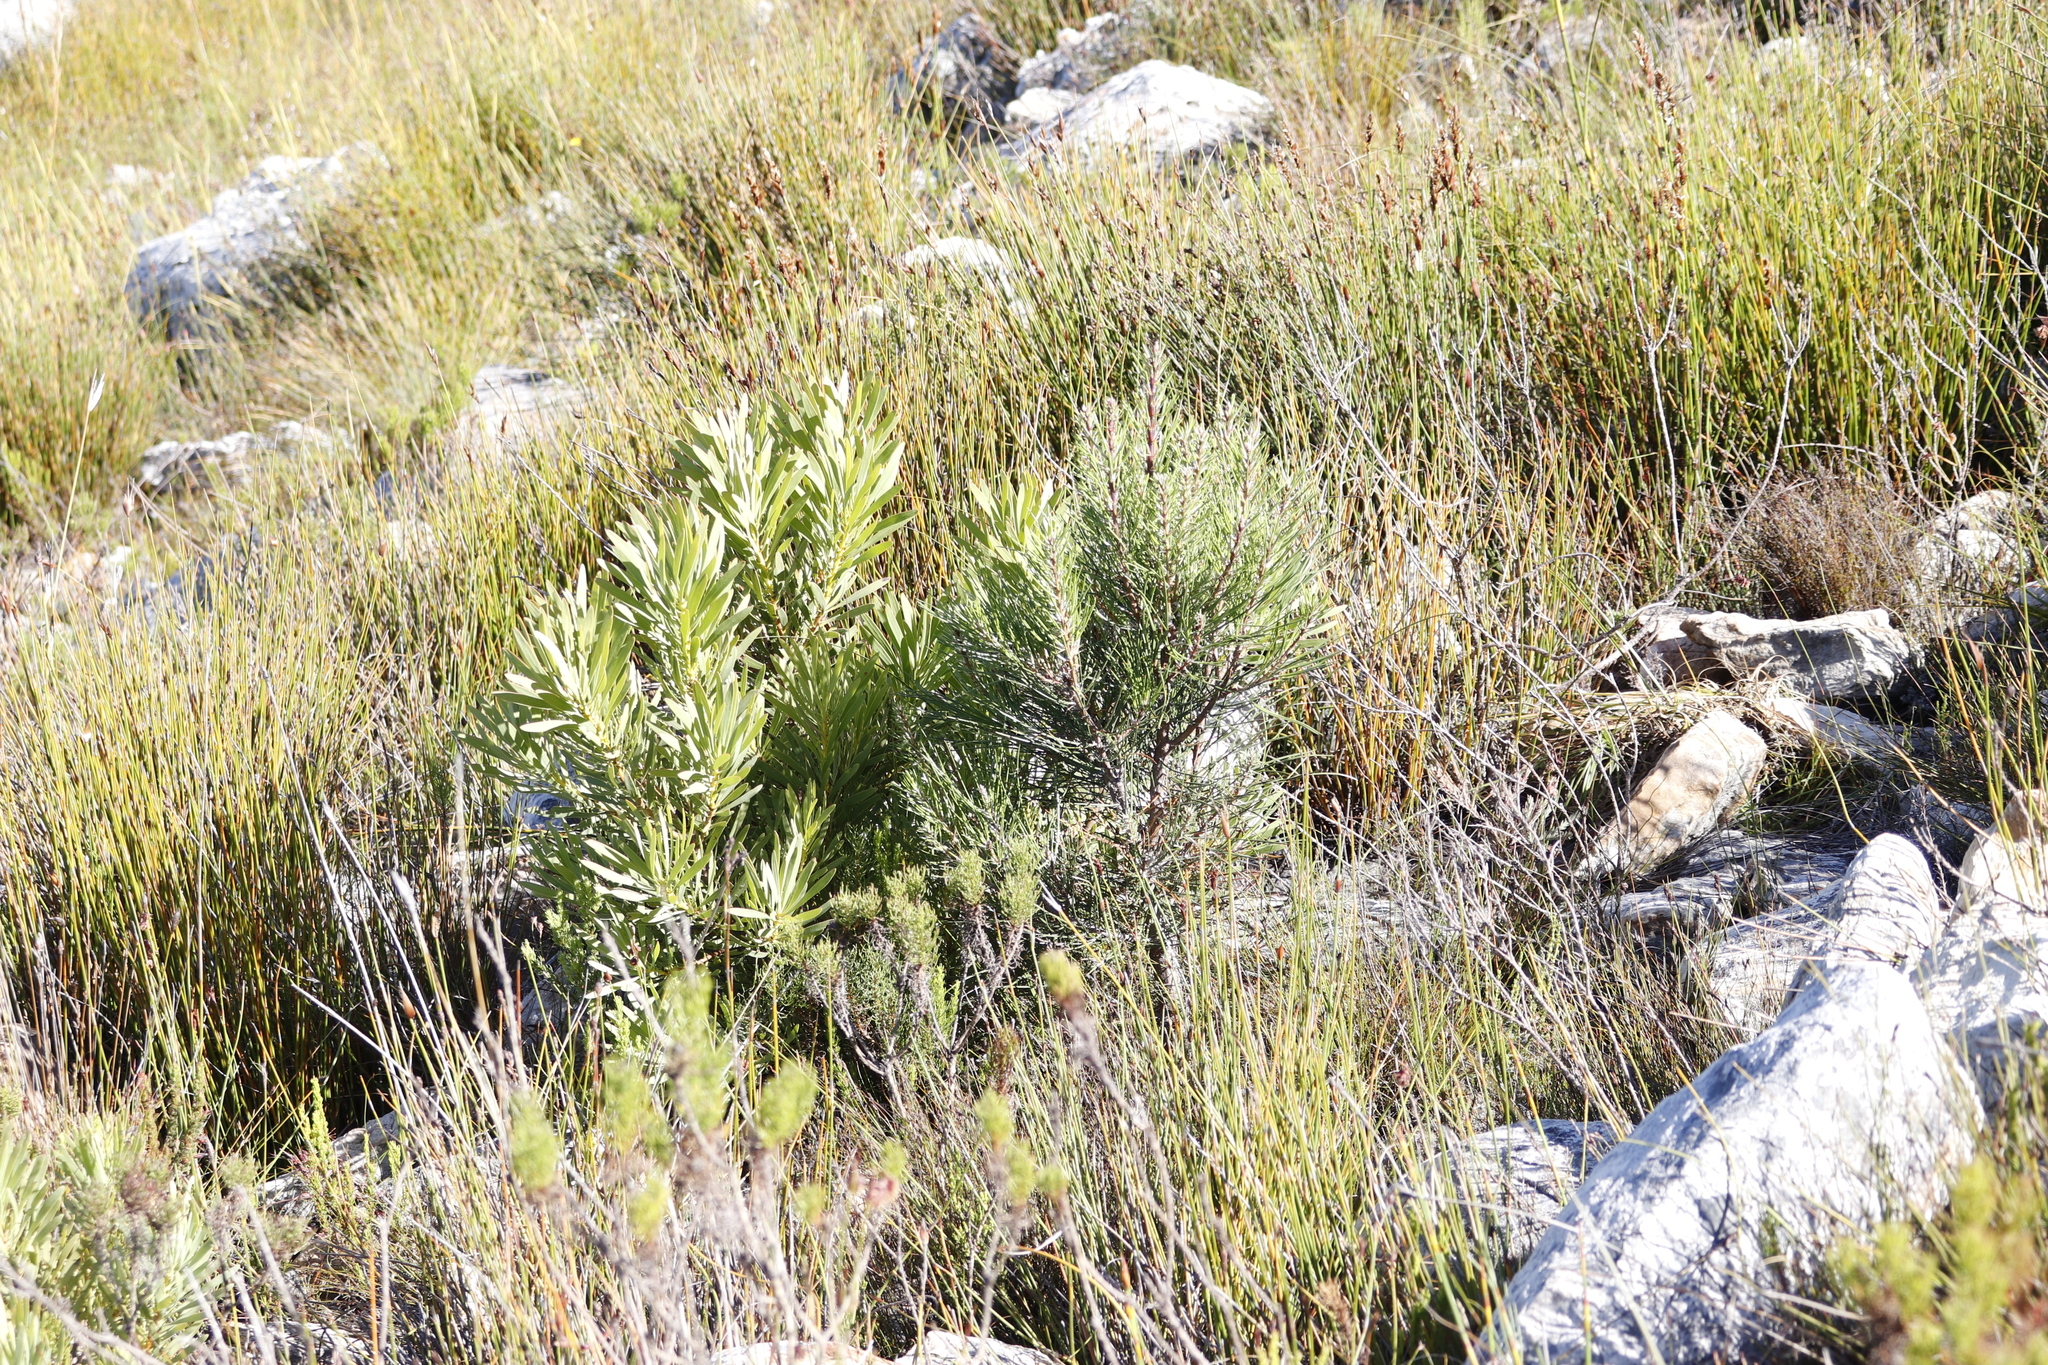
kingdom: Plantae
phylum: Tracheophyta
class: Magnoliopsida
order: Proteales
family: Proteaceae
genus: Protea
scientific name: Protea repens
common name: Sugarbush
